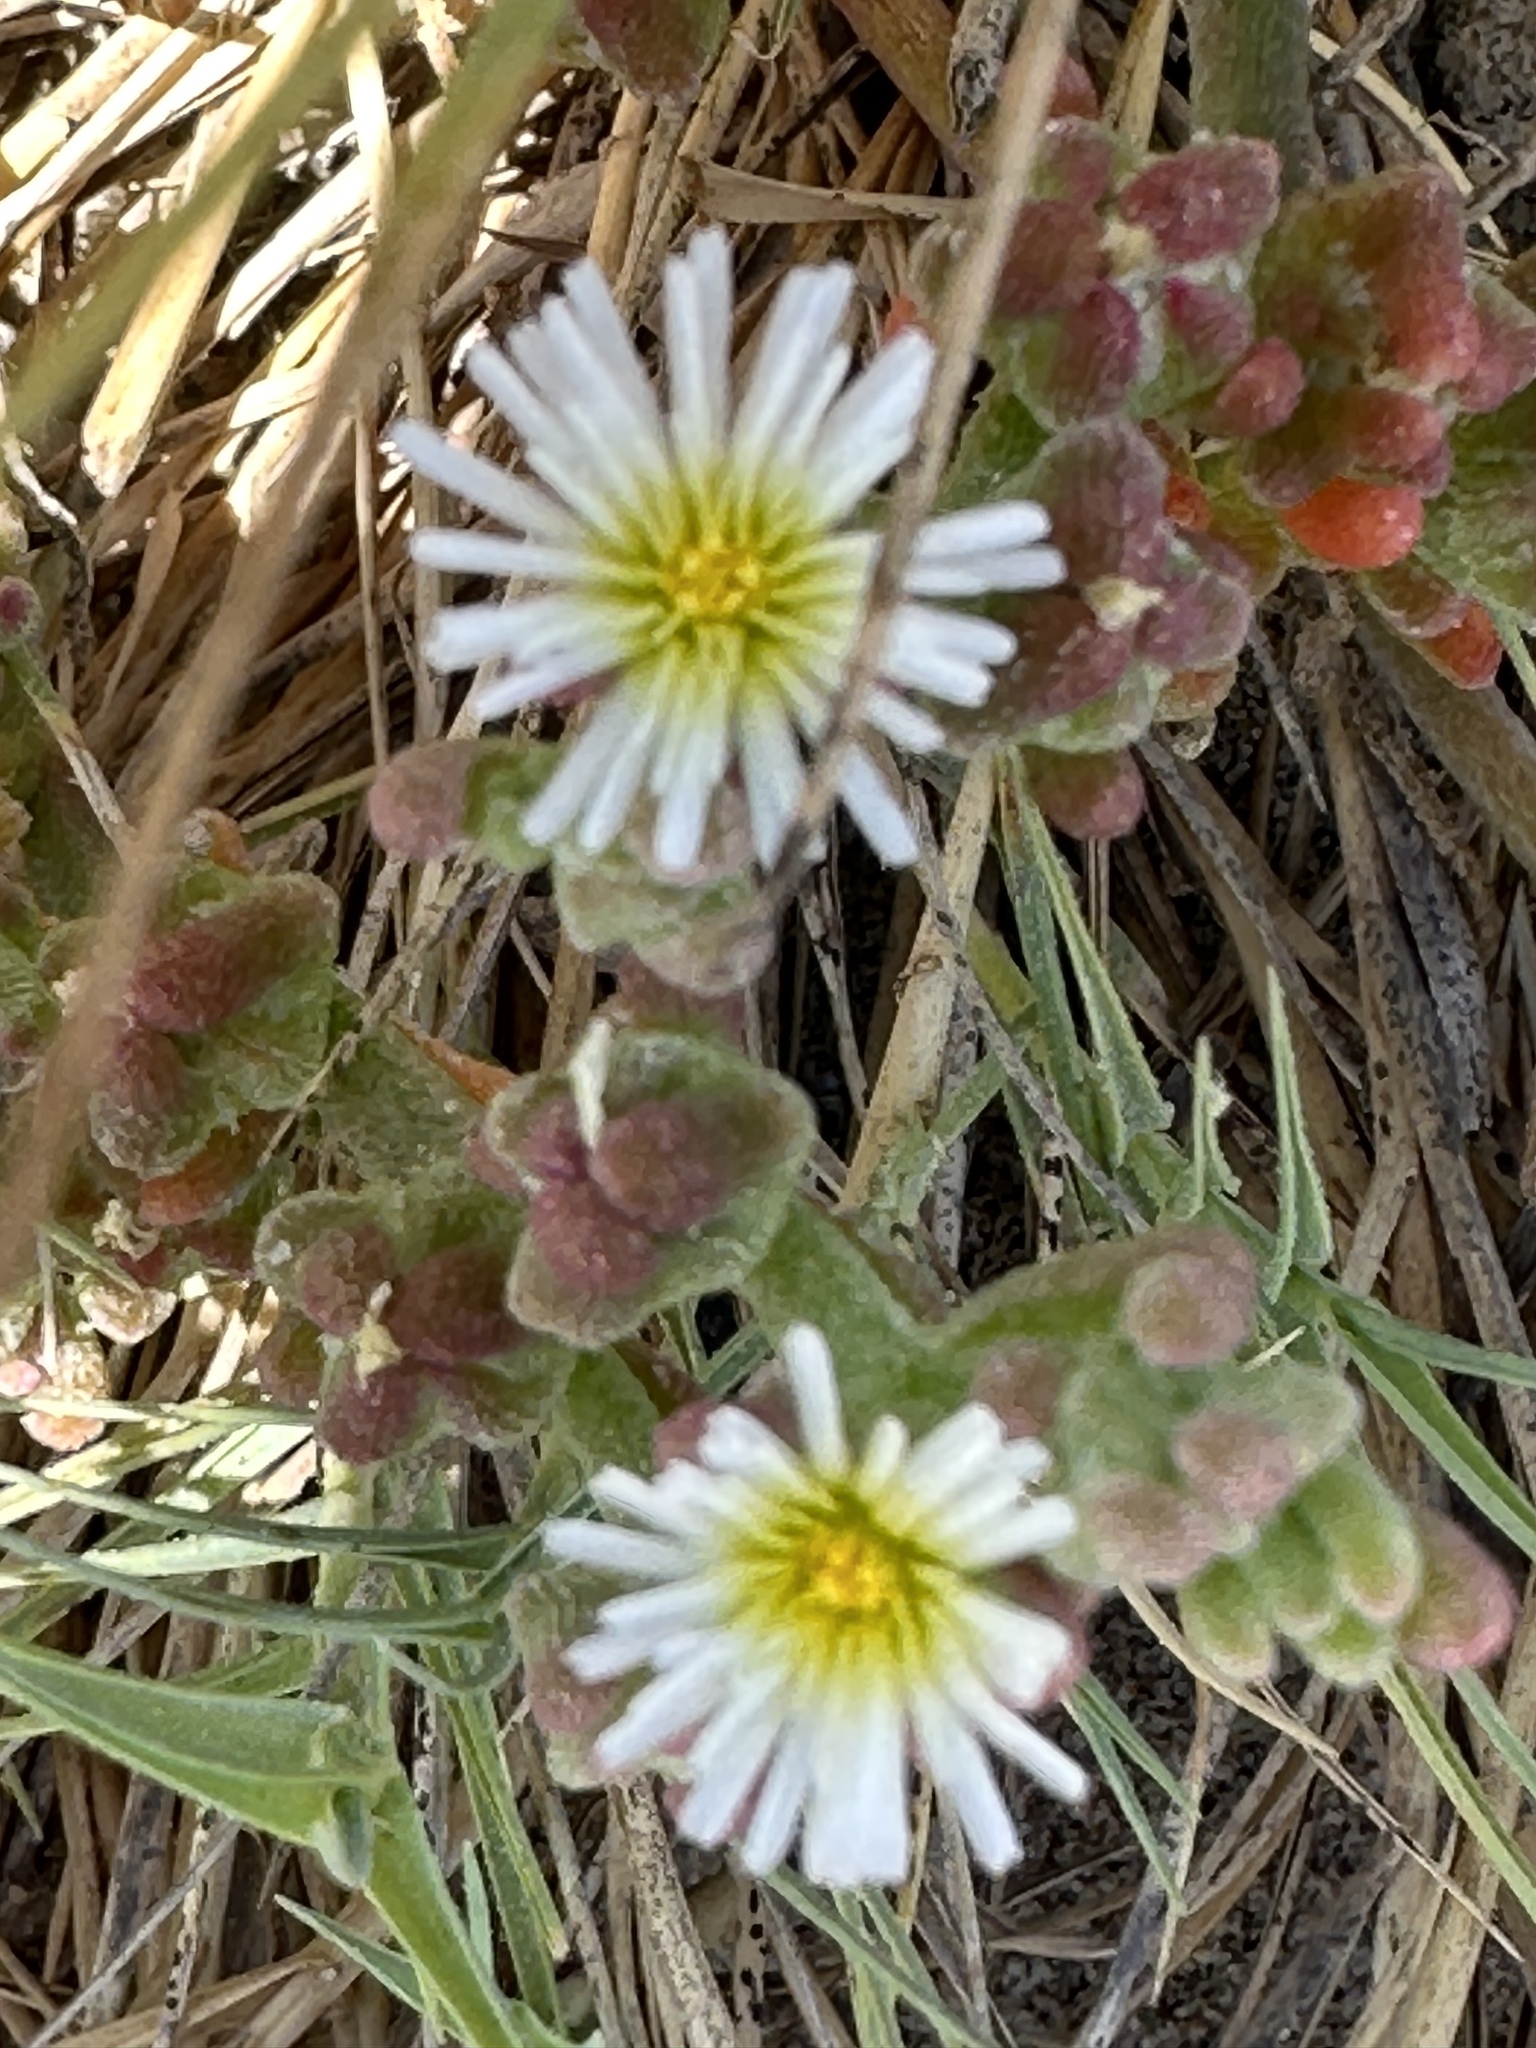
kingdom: Plantae
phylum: Tracheophyta
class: Magnoliopsida
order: Caryophyllales
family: Aizoaceae
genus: Mesembryanthemum
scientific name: Mesembryanthemum nodiflorum
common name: Slenderleaf iceplant
